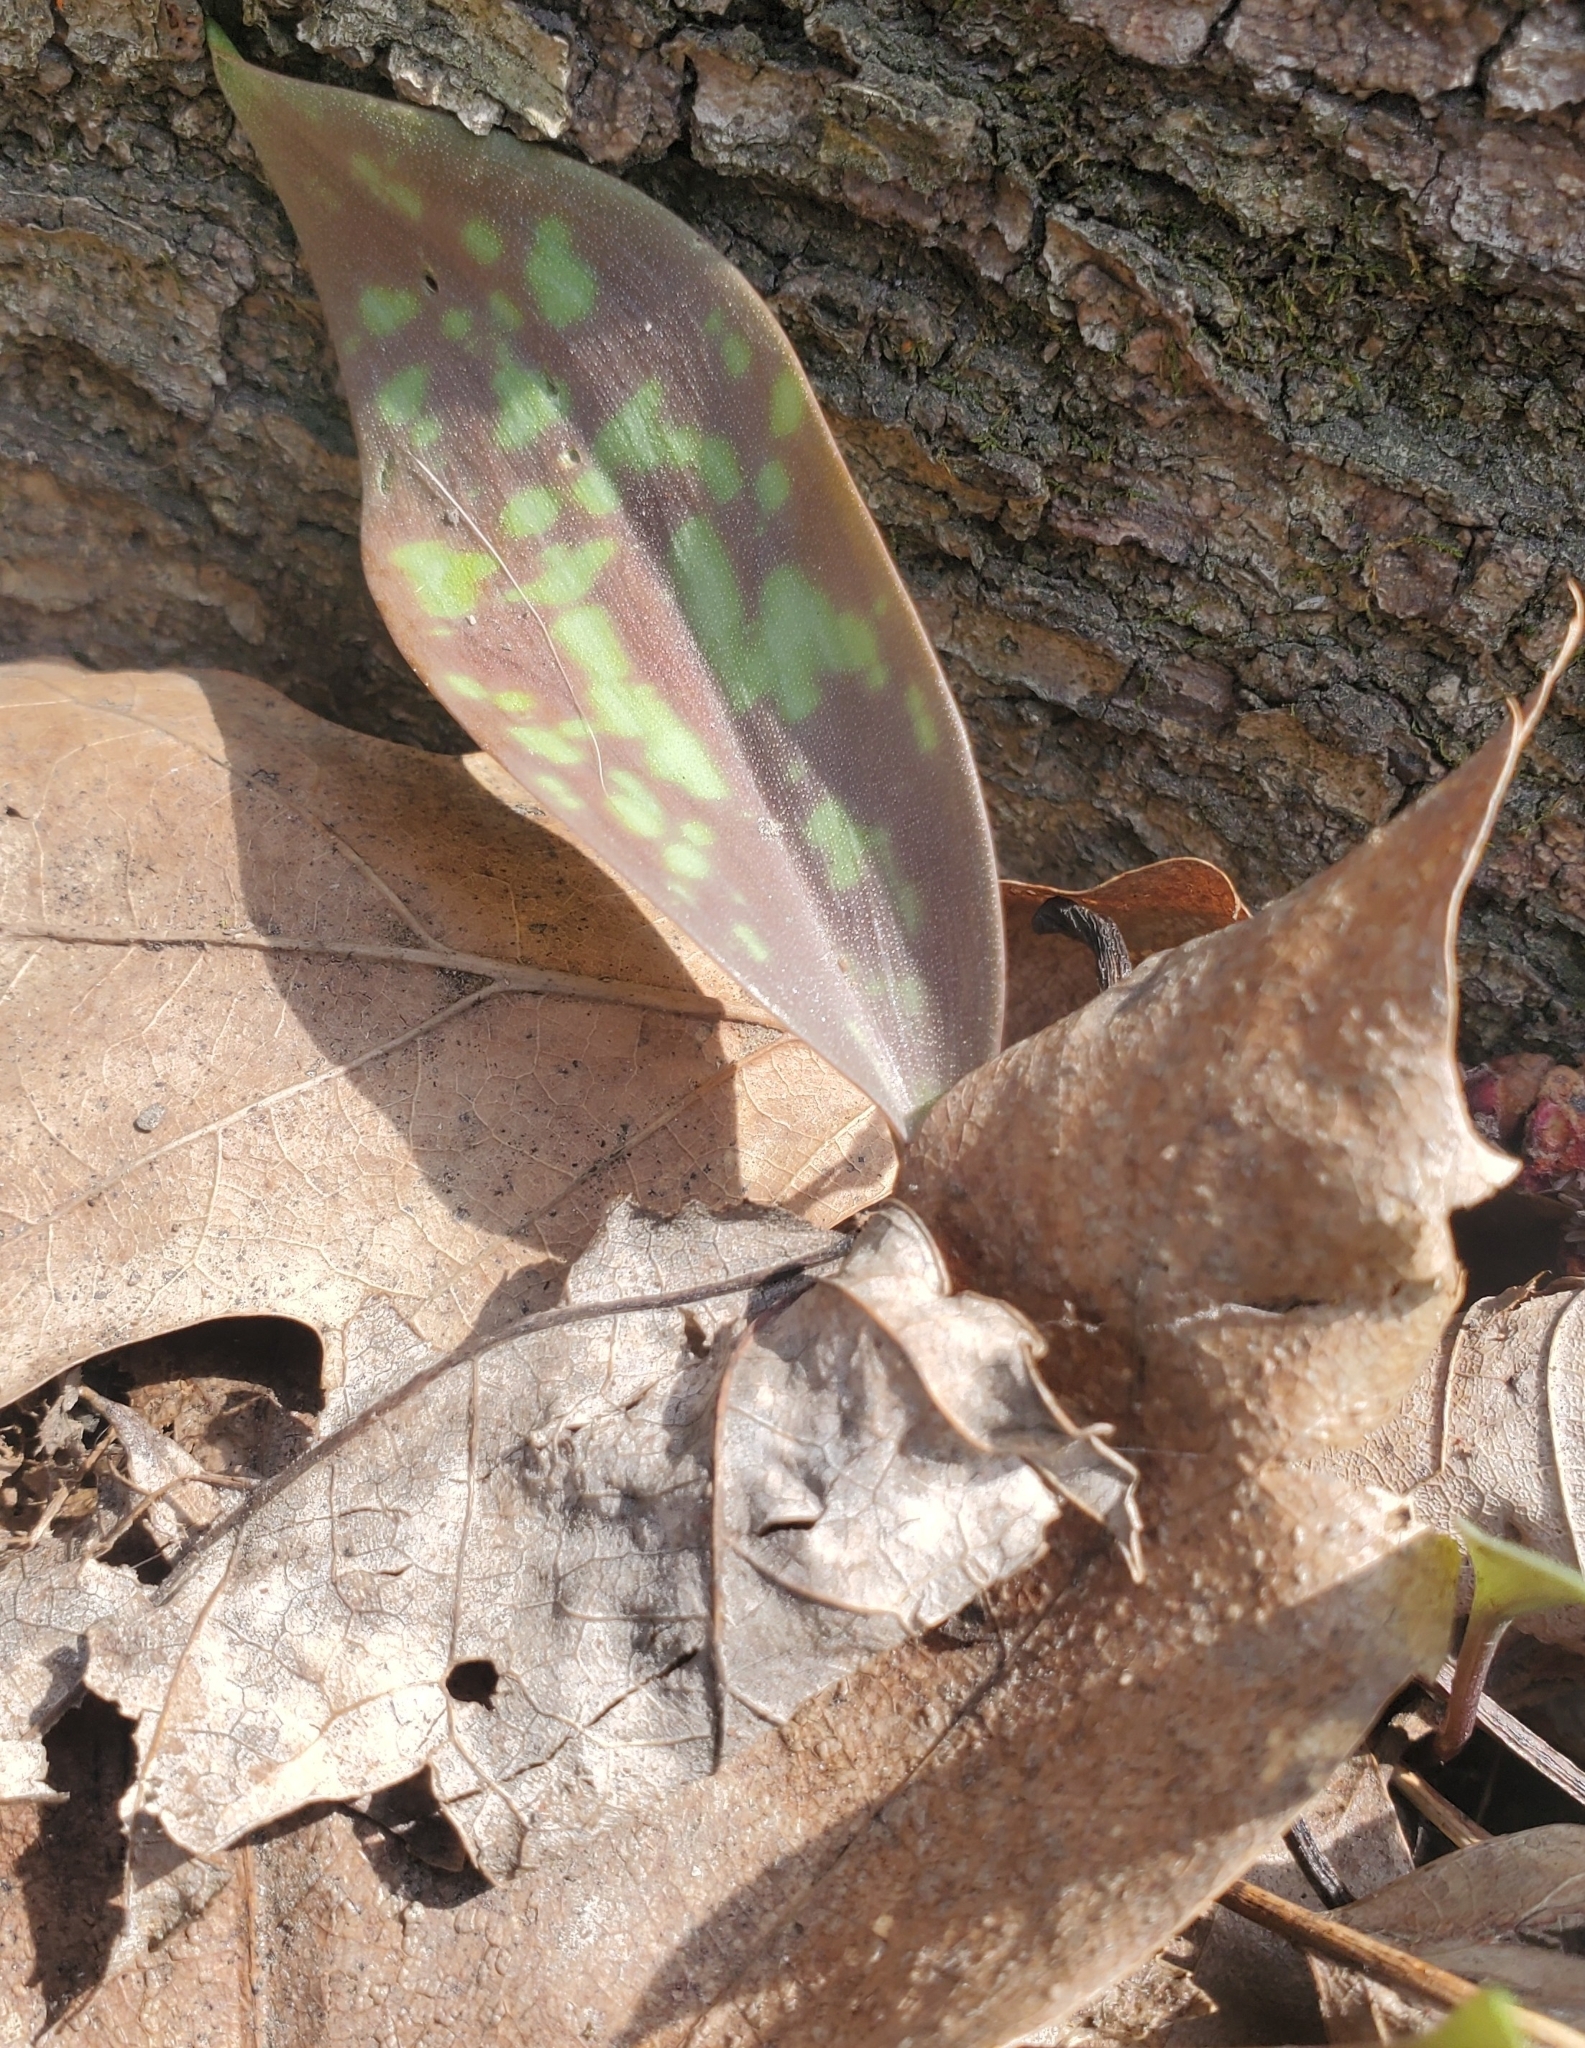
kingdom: Plantae
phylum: Tracheophyta
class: Liliopsida
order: Liliales
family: Liliaceae
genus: Erythronium
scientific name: Erythronium americanum
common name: Yellow adder's-tongue
